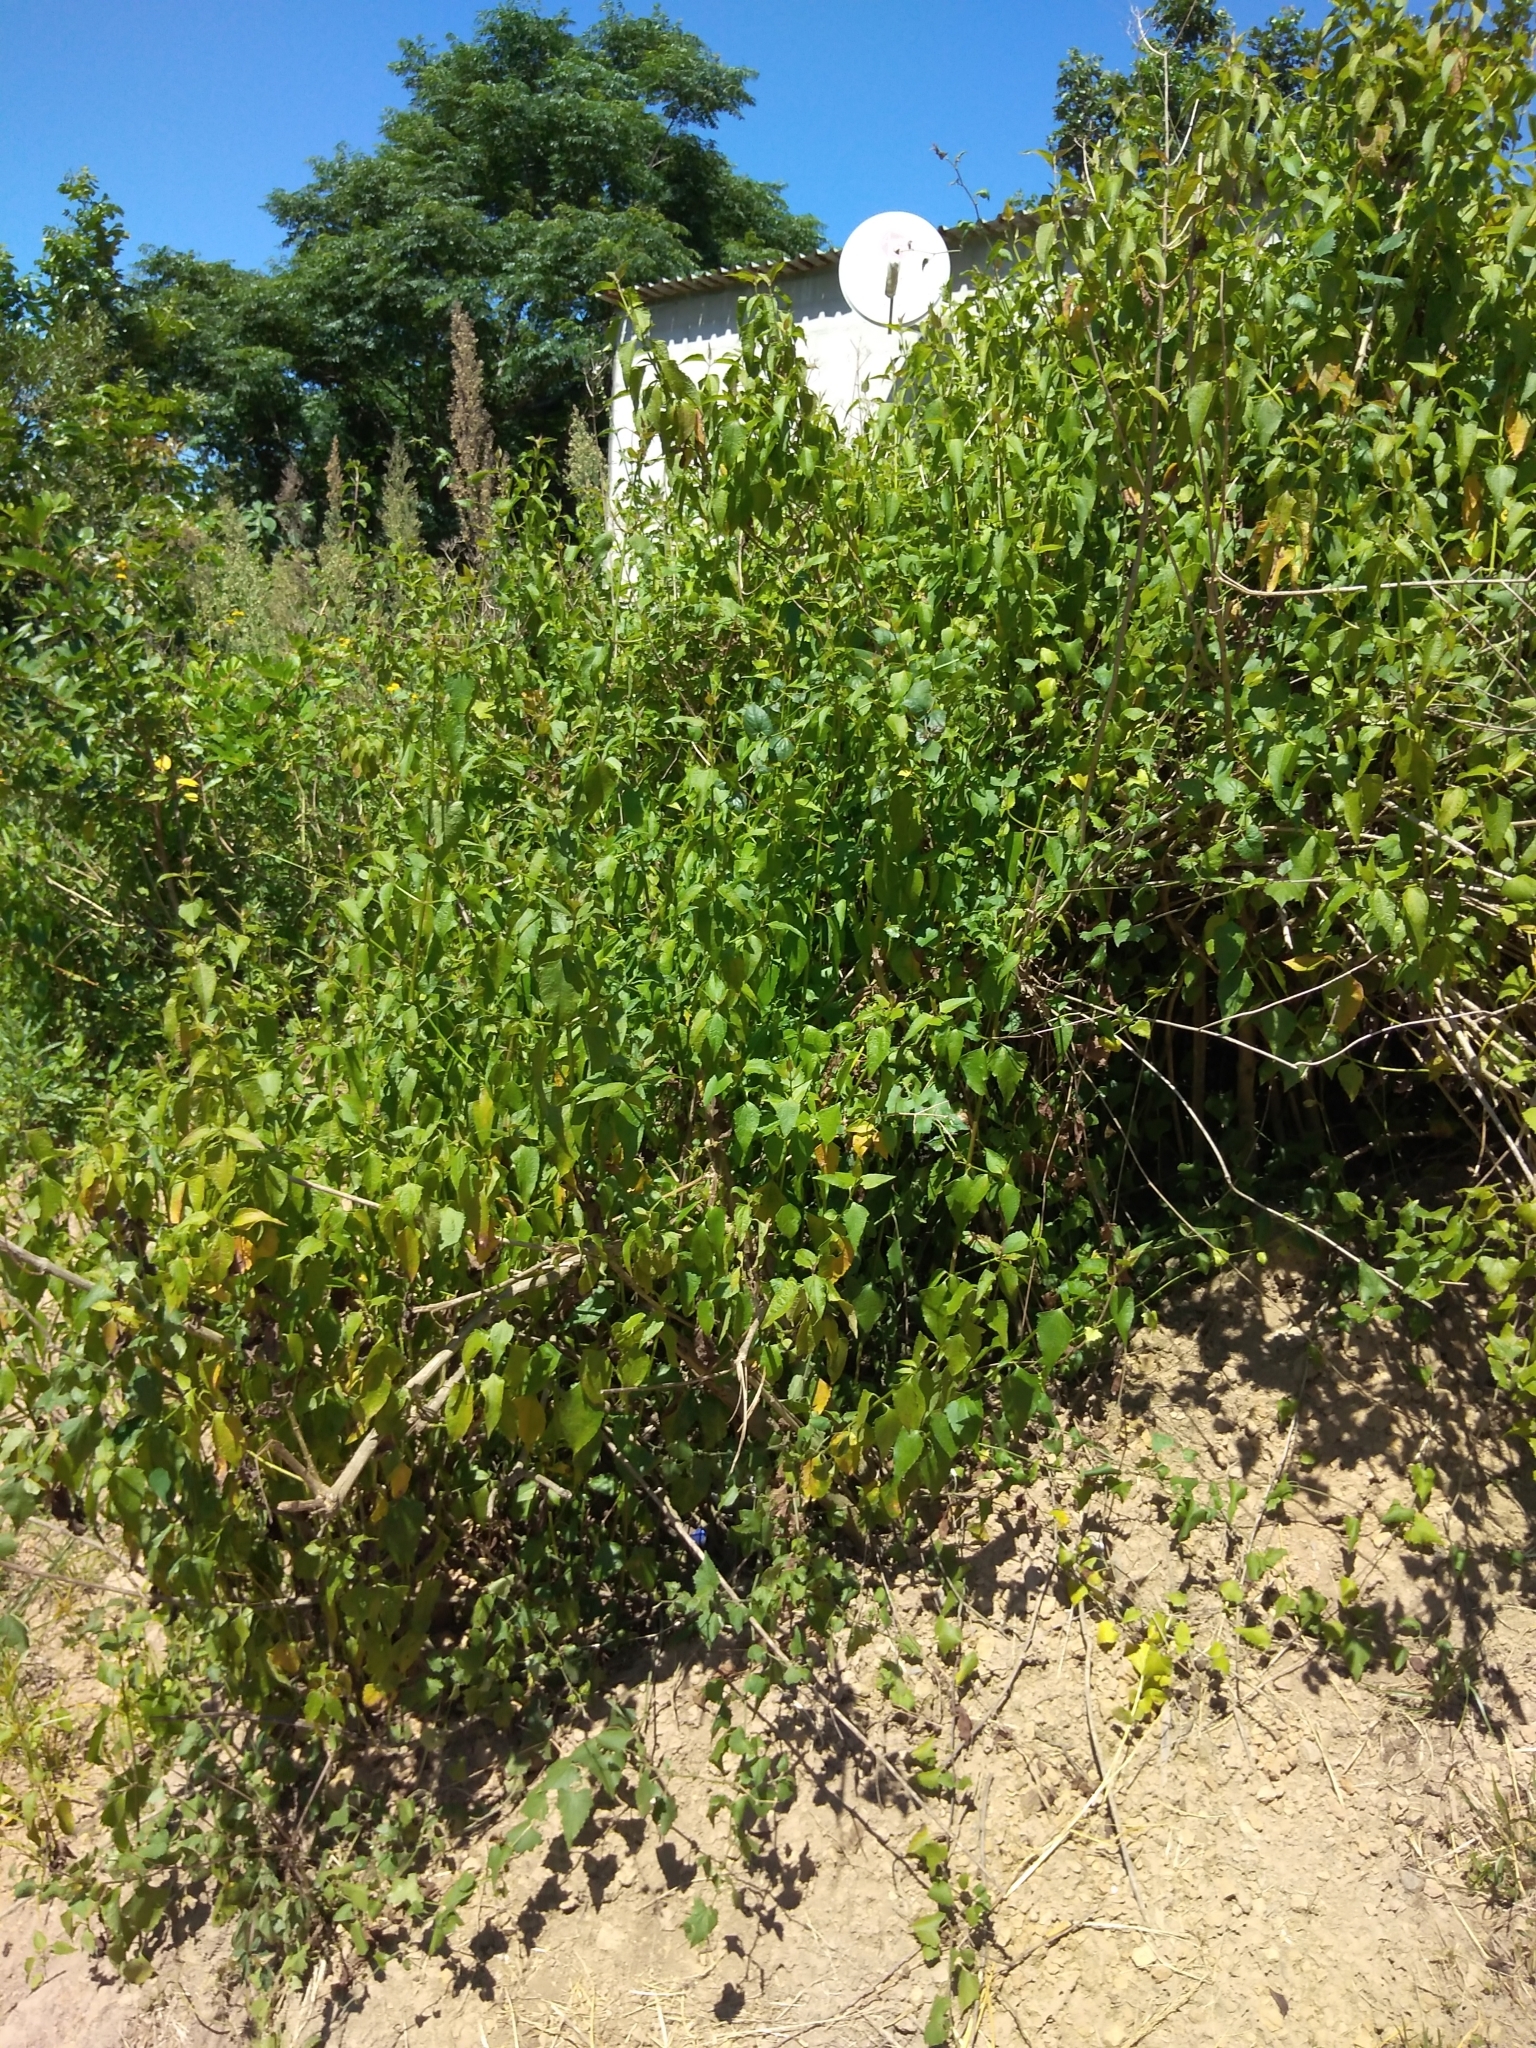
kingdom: Plantae
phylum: Tracheophyta
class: Magnoliopsida
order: Asterales
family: Asteraceae
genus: Chromolaena
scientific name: Chromolaena odorata
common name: Siamweed
